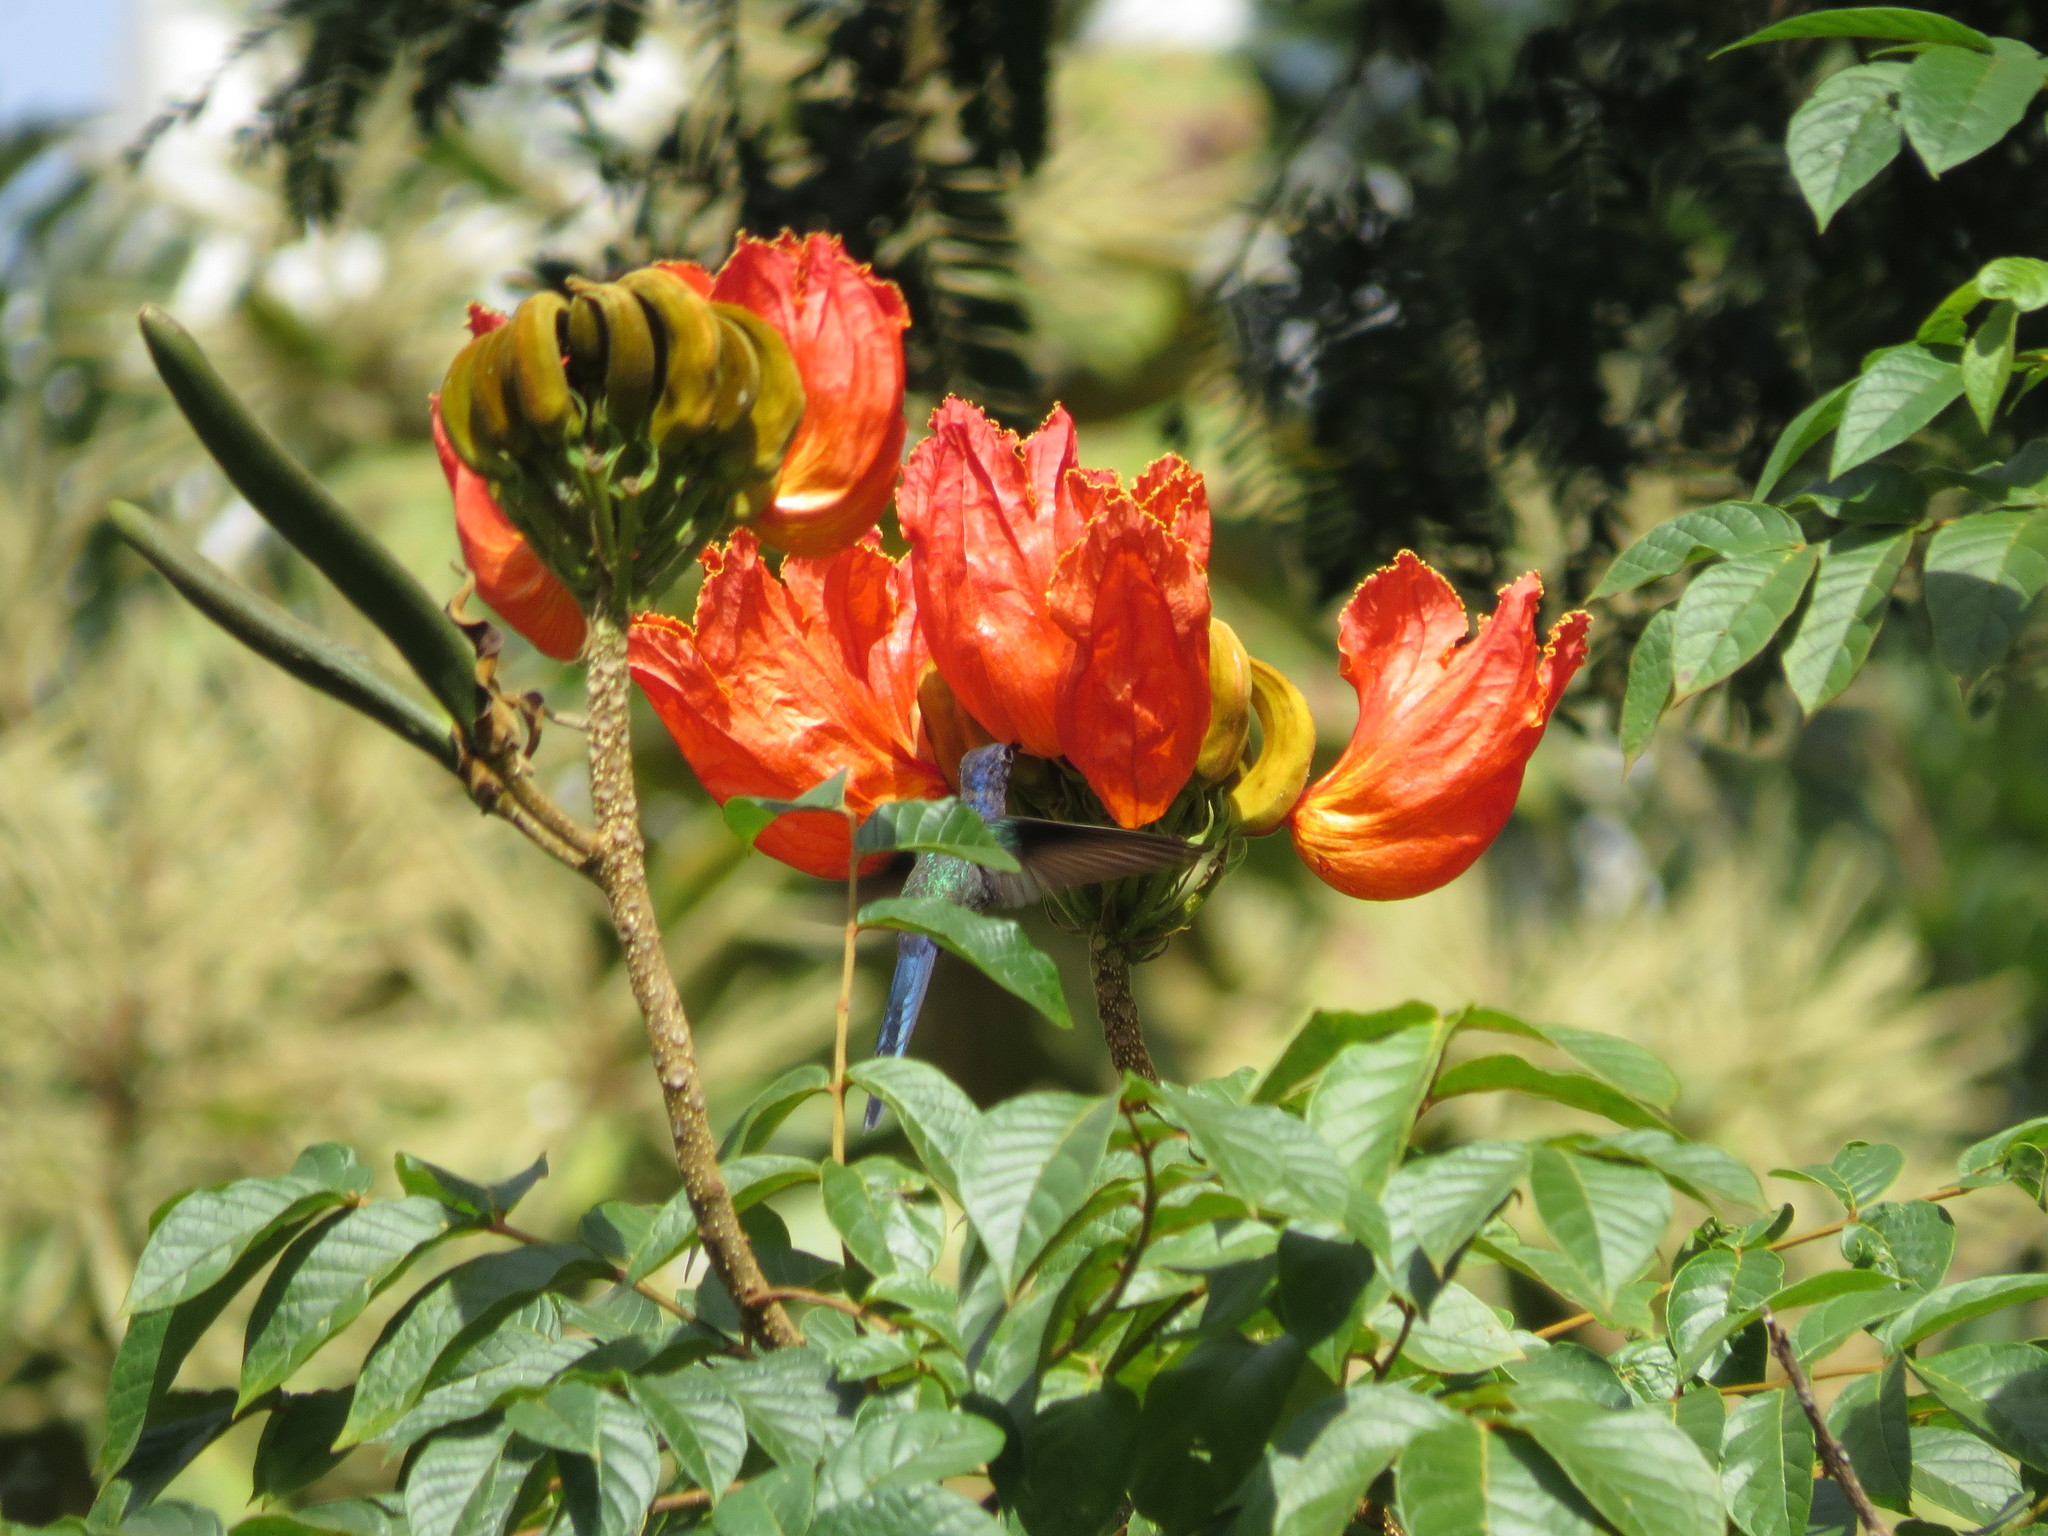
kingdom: Plantae
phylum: Tracheophyta
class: Magnoliopsida
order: Lamiales
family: Bignoniaceae
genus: Spathodea
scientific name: Spathodea campanulata
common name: African tuliptree
